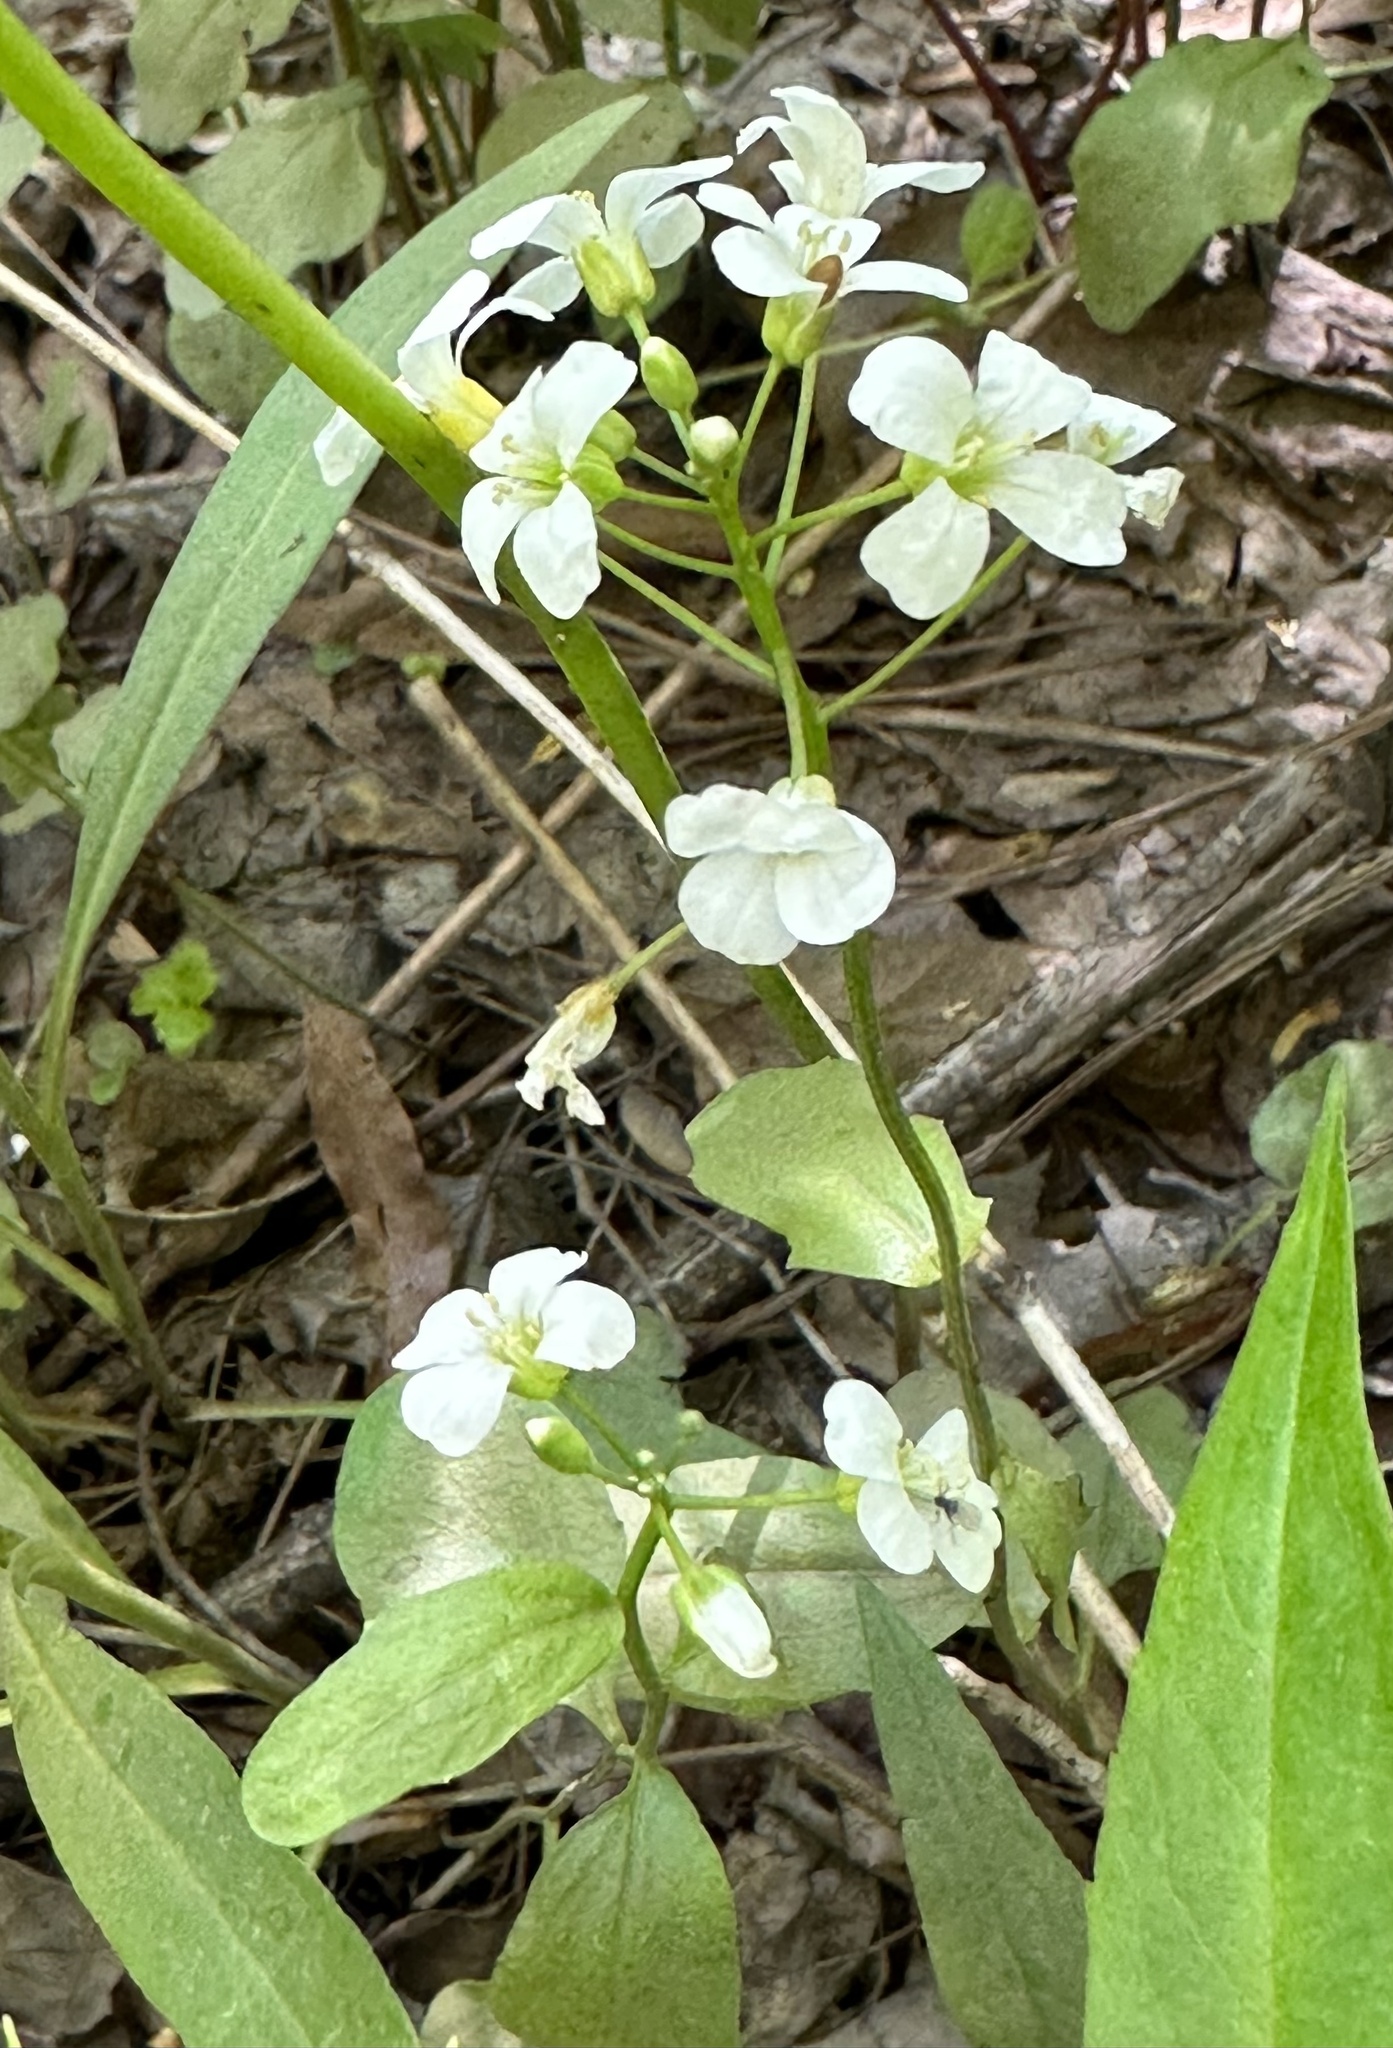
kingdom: Plantae
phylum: Tracheophyta
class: Magnoliopsida
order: Brassicales
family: Brassicaceae
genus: Cardamine
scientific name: Cardamine bulbosa
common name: Spring cress
